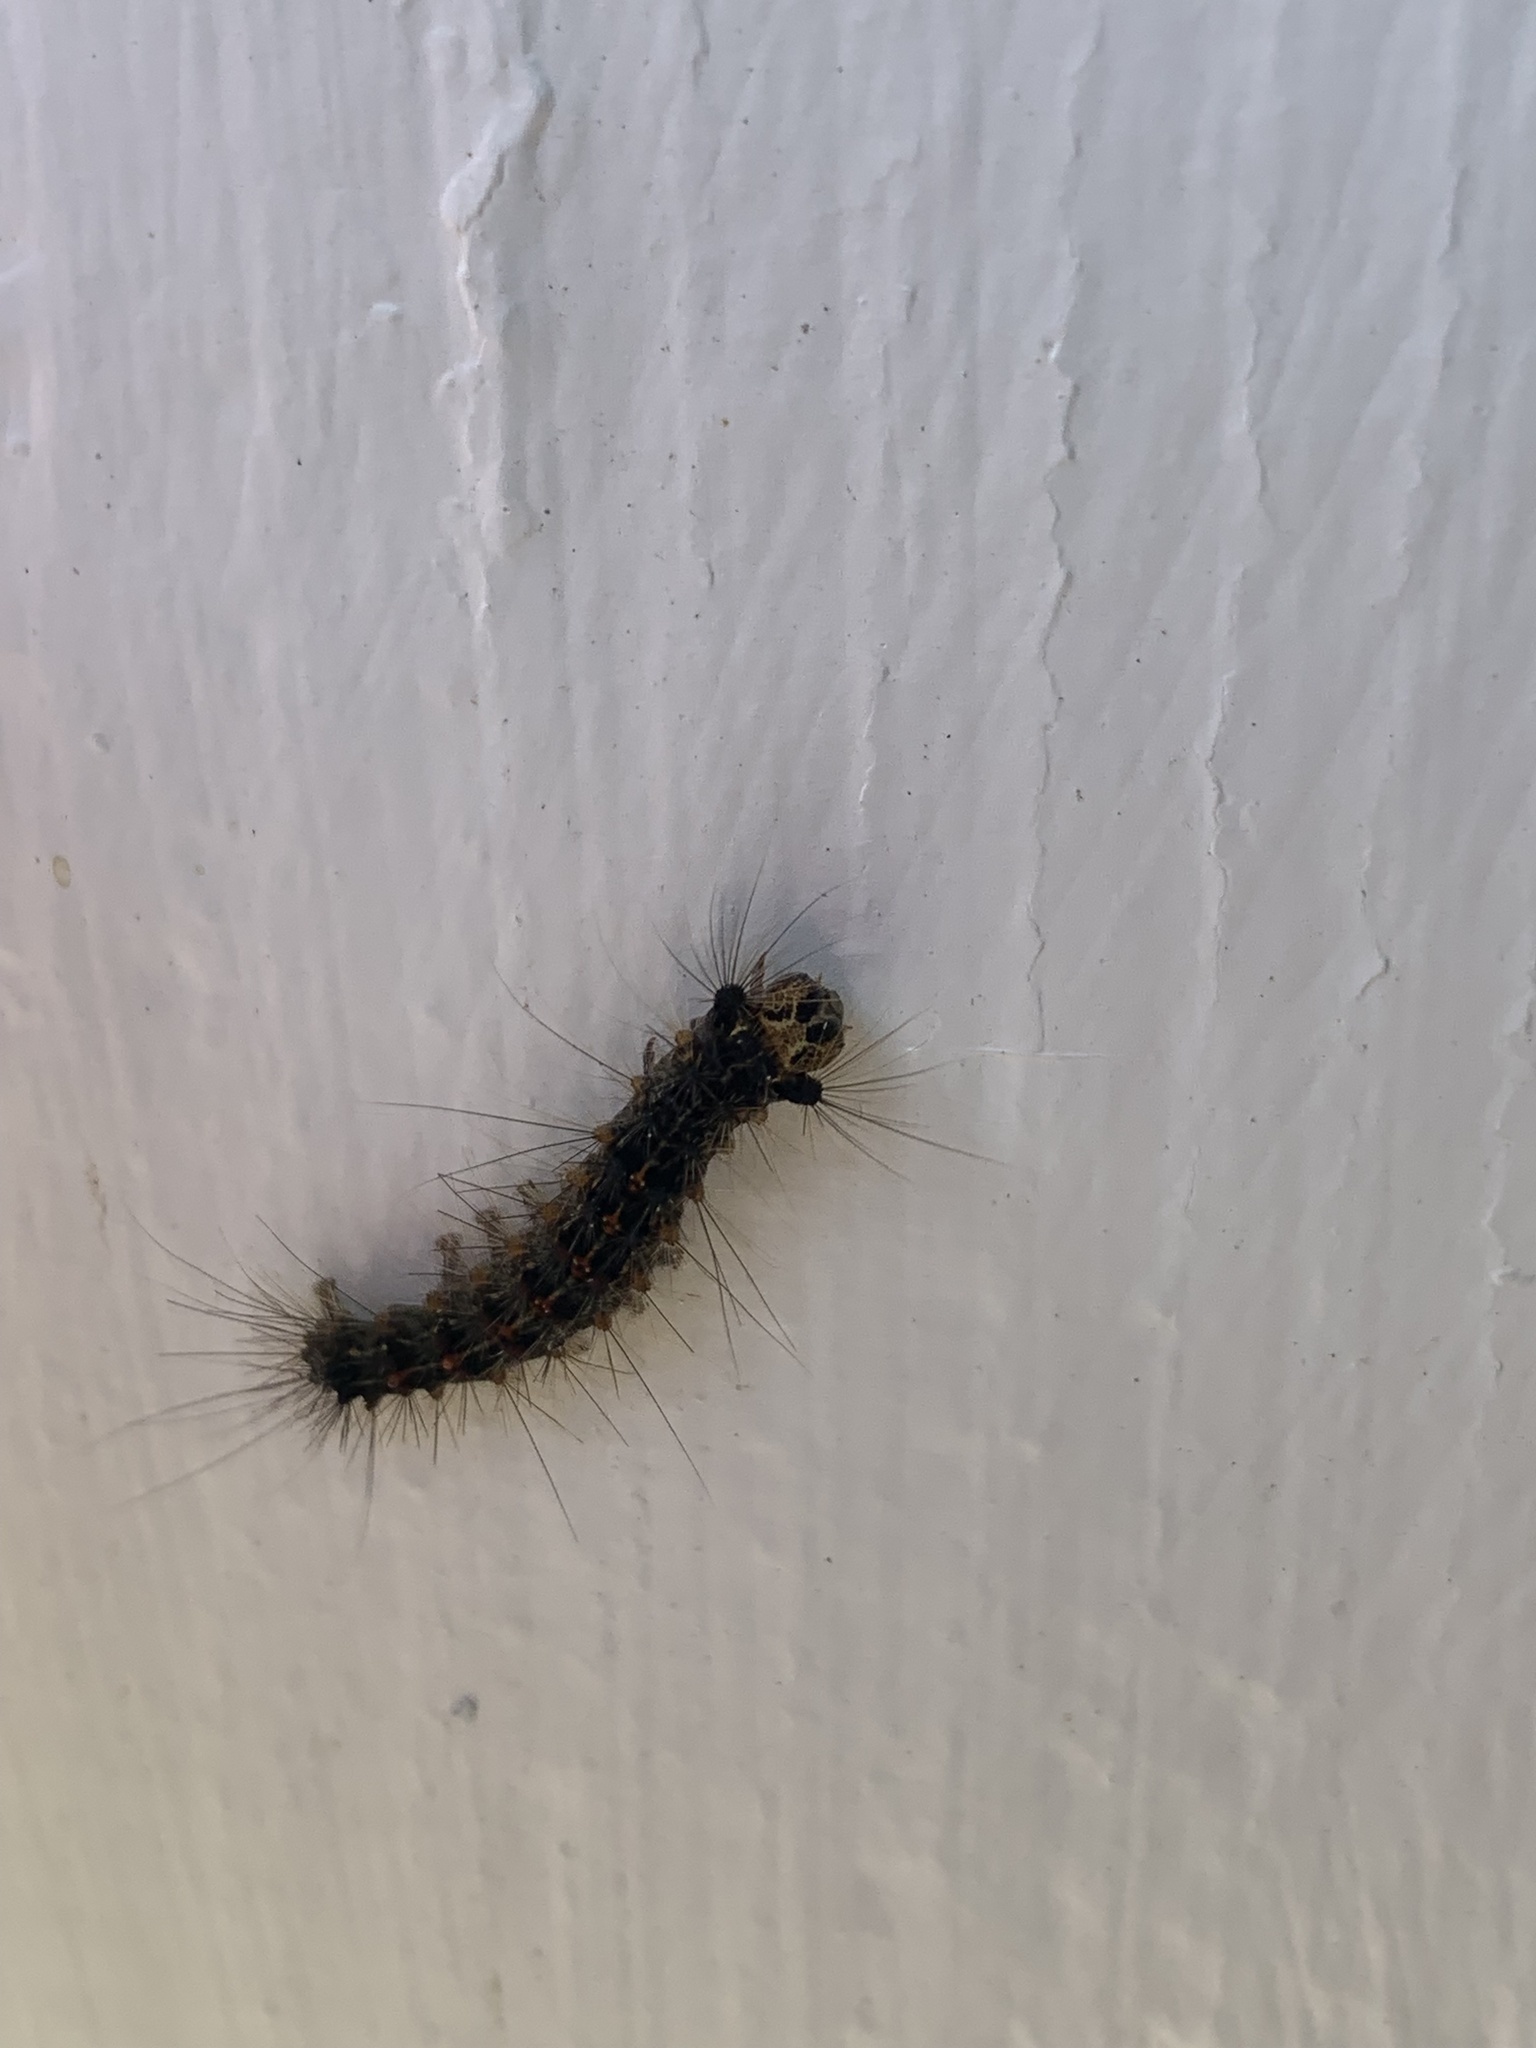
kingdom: Animalia
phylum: Arthropoda
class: Insecta
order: Lepidoptera
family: Erebidae
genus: Lymantria
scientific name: Lymantria dispar
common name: Gypsy moth
